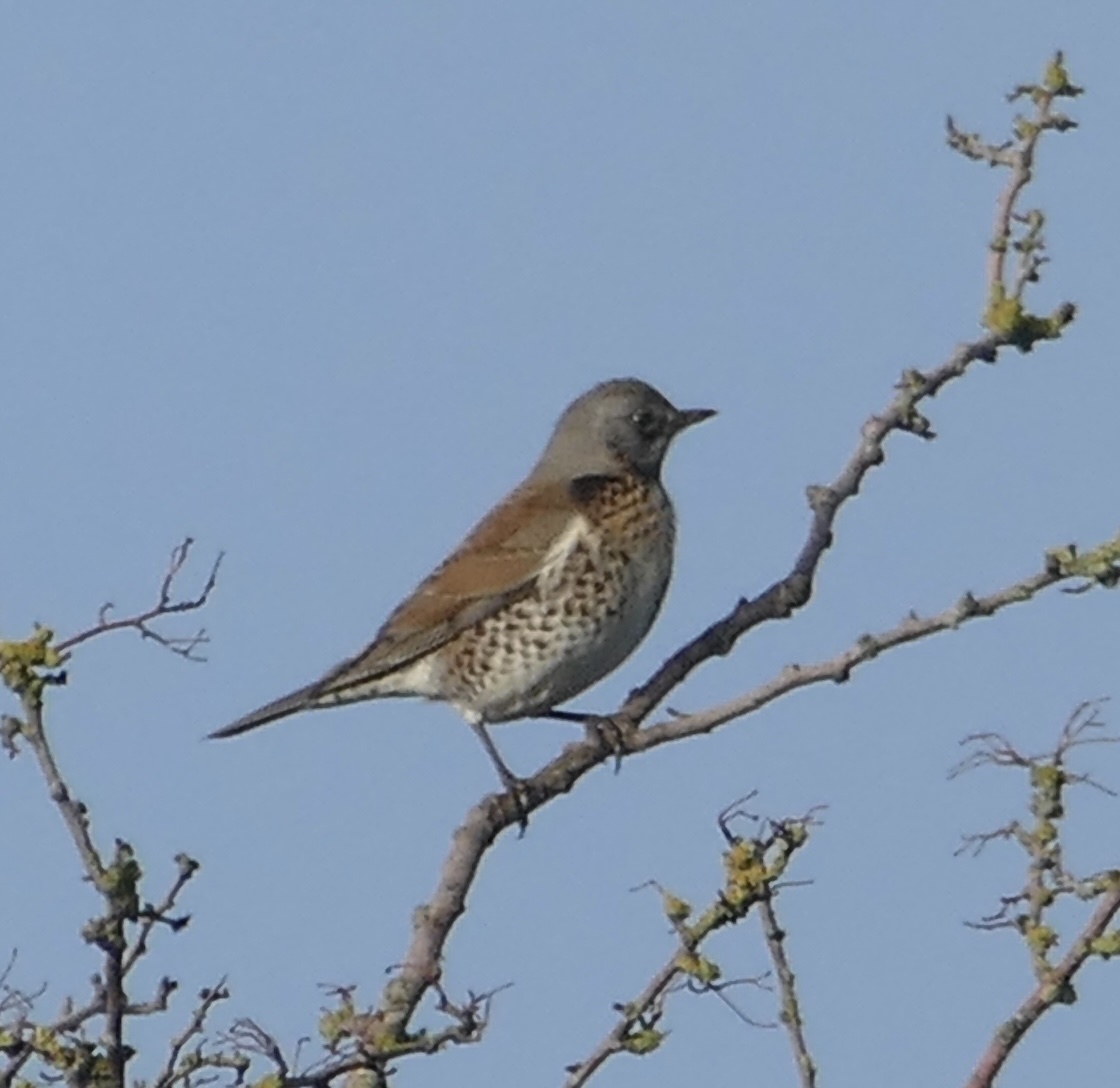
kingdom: Animalia
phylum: Chordata
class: Aves
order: Passeriformes
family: Turdidae
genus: Turdus
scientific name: Turdus pilaris
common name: Fieldfare
